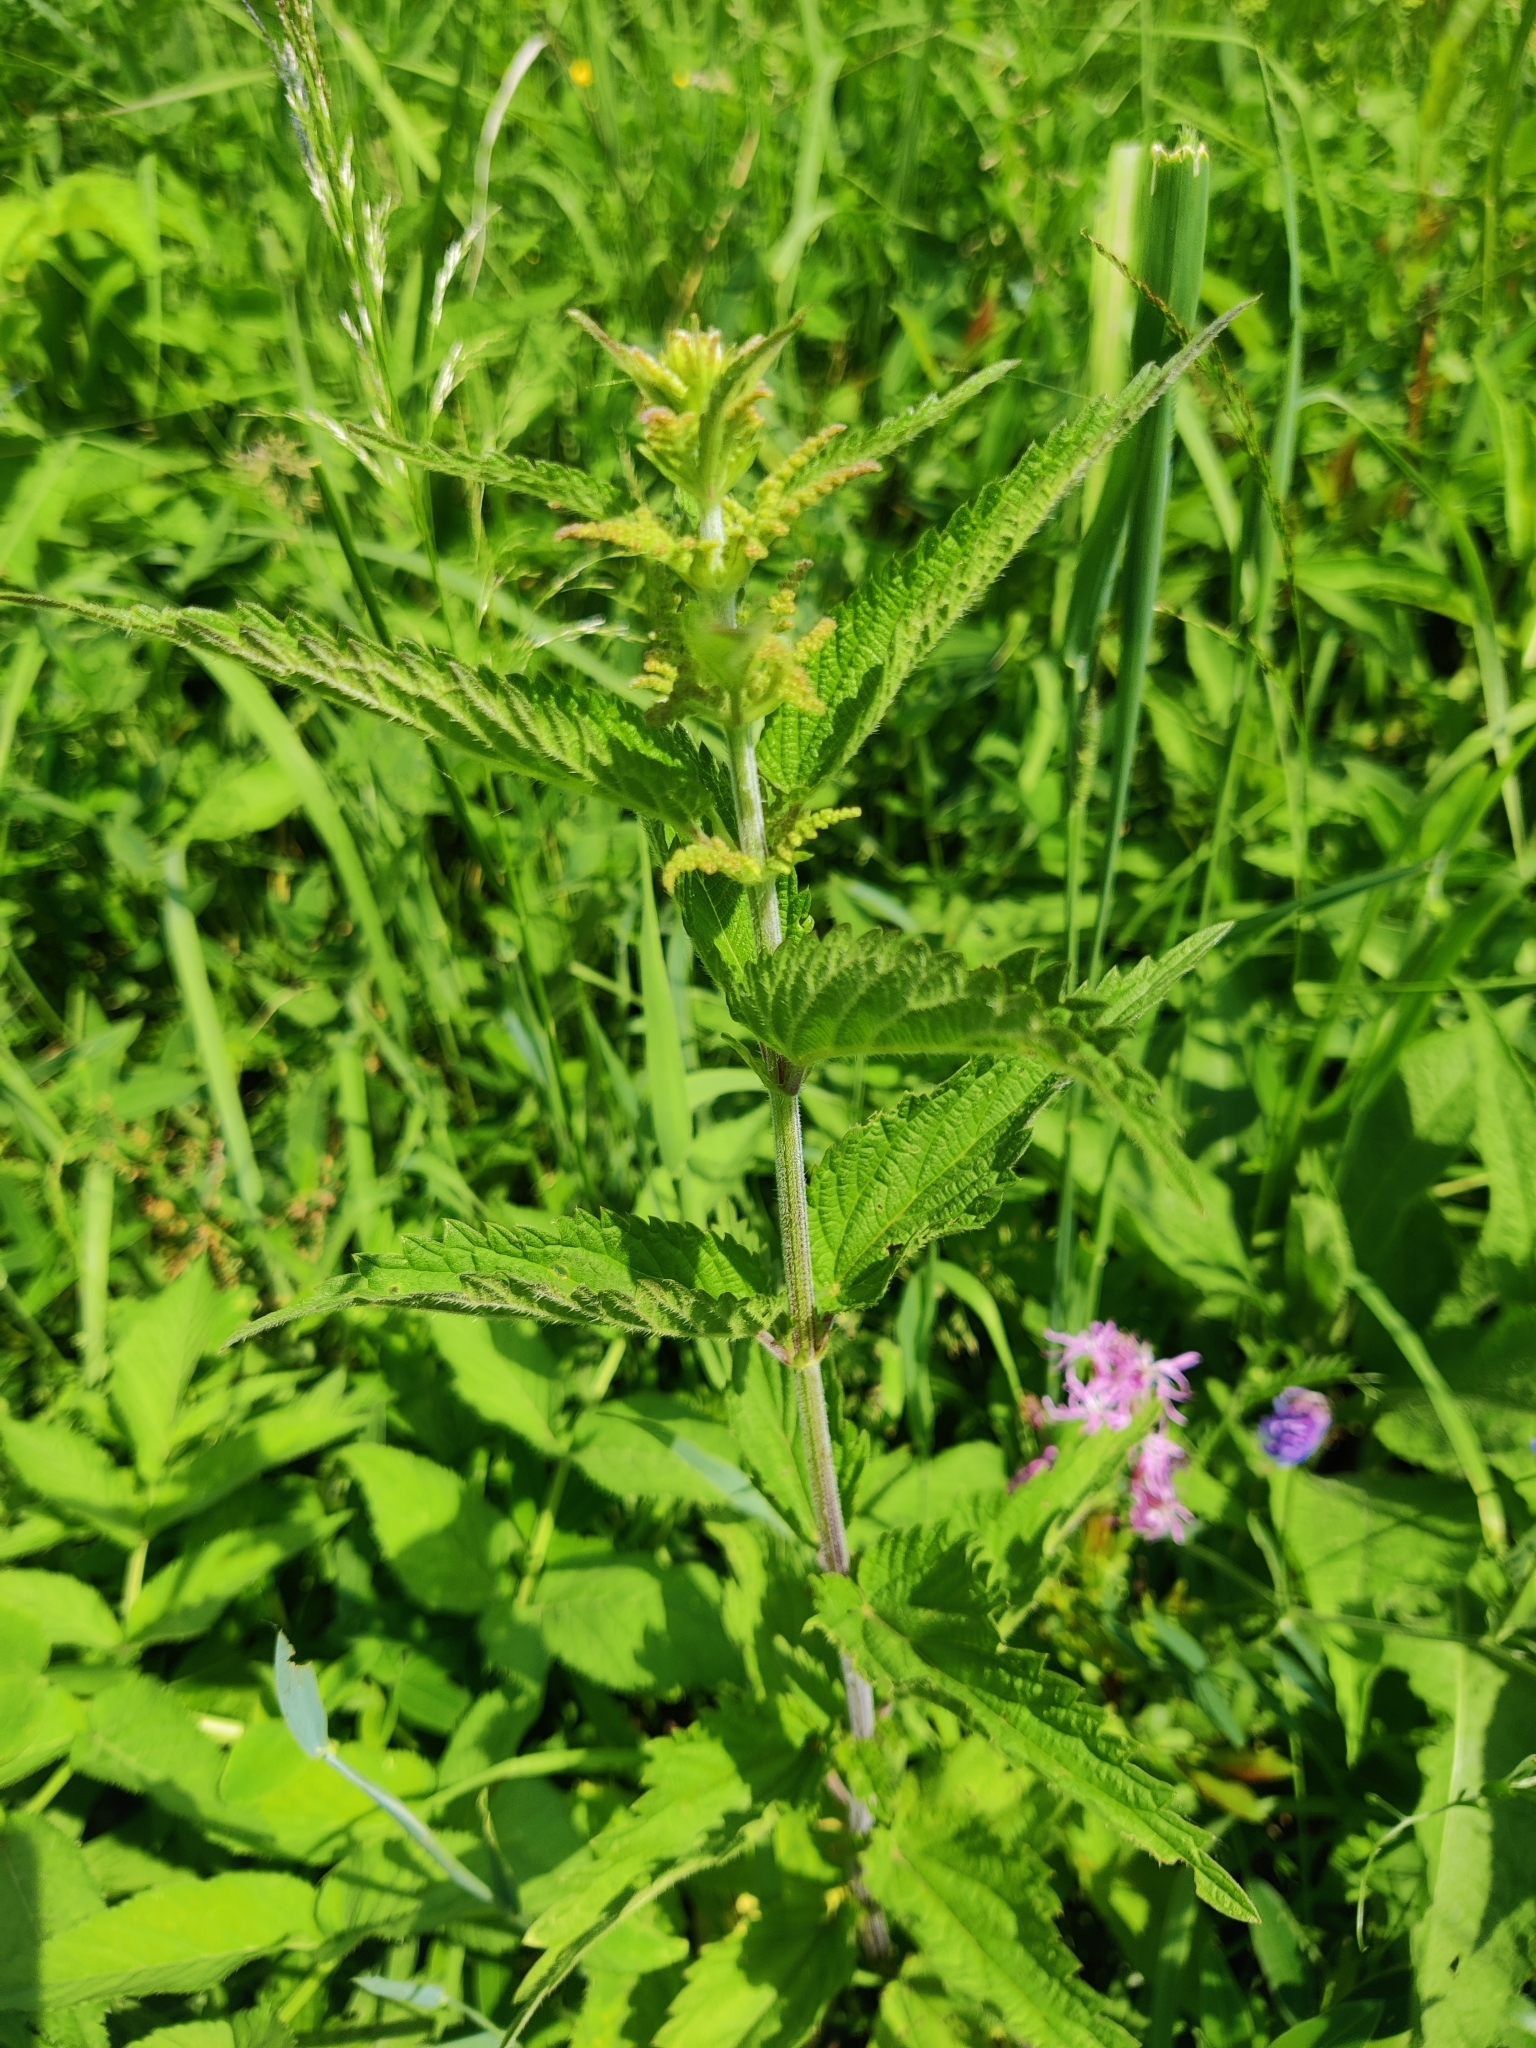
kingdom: Plantae
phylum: Tracheophyta
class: Magnoliopsida
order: Rosales
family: Urticaceae
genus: Urtica
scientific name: Urtica dioica
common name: Common nettle
